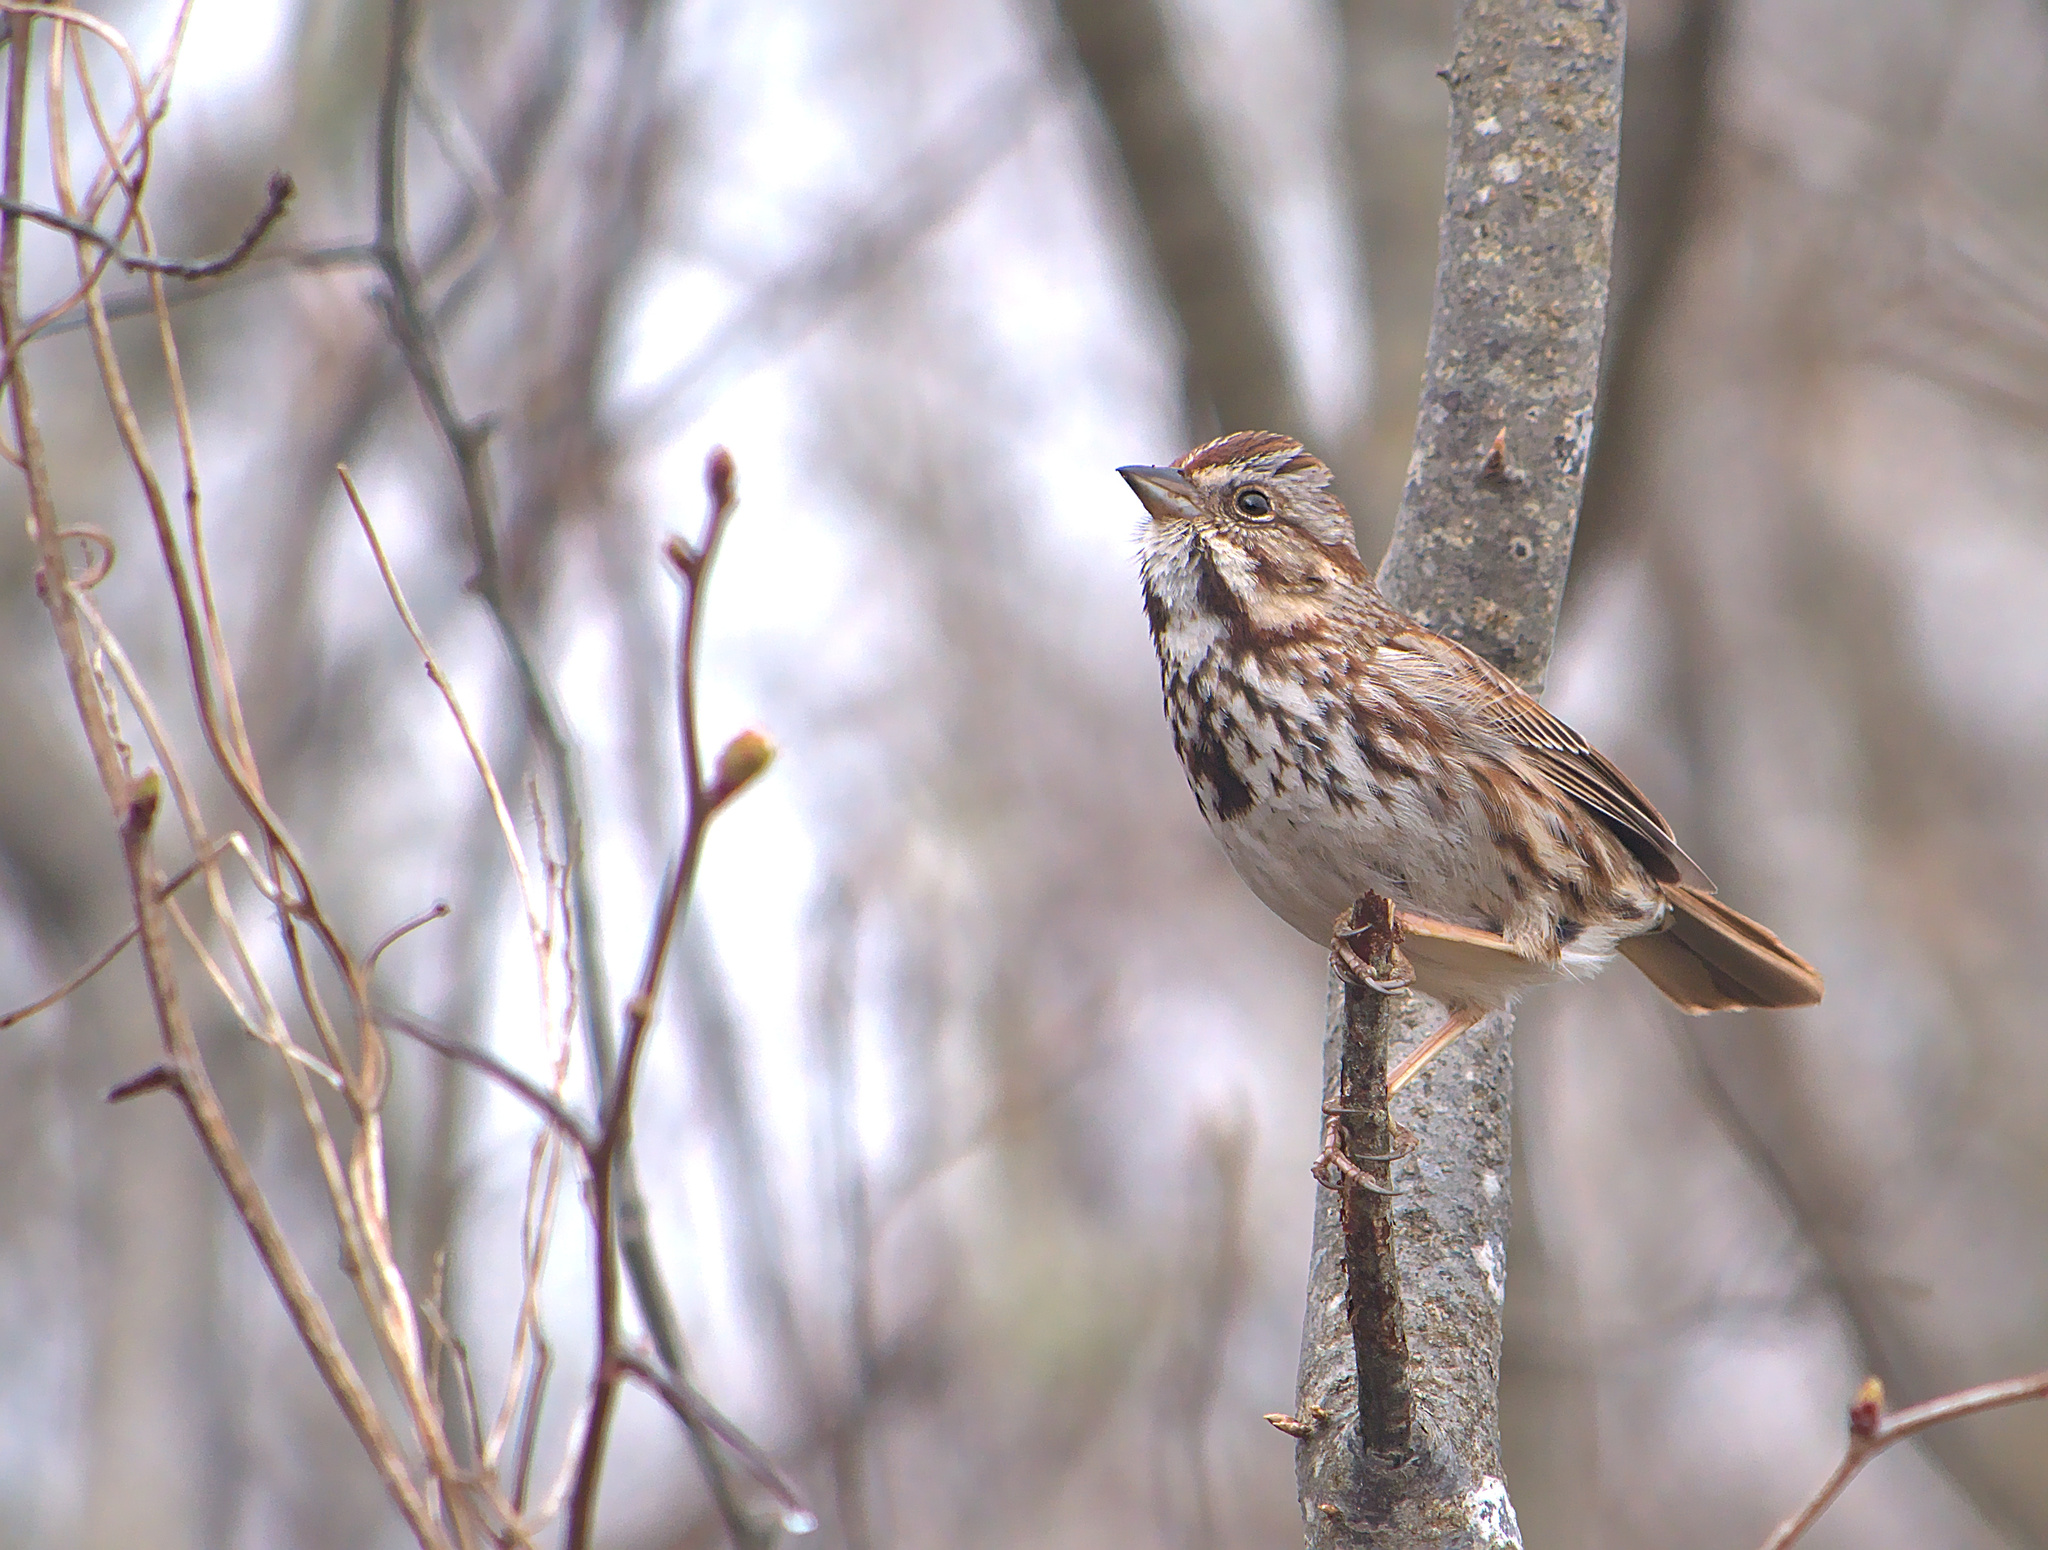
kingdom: Animalia
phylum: Chordata
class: Aves
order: Passeriformes
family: Passerellidae
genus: Melospiza
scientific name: Melospiza melodia
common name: Song sparrow
